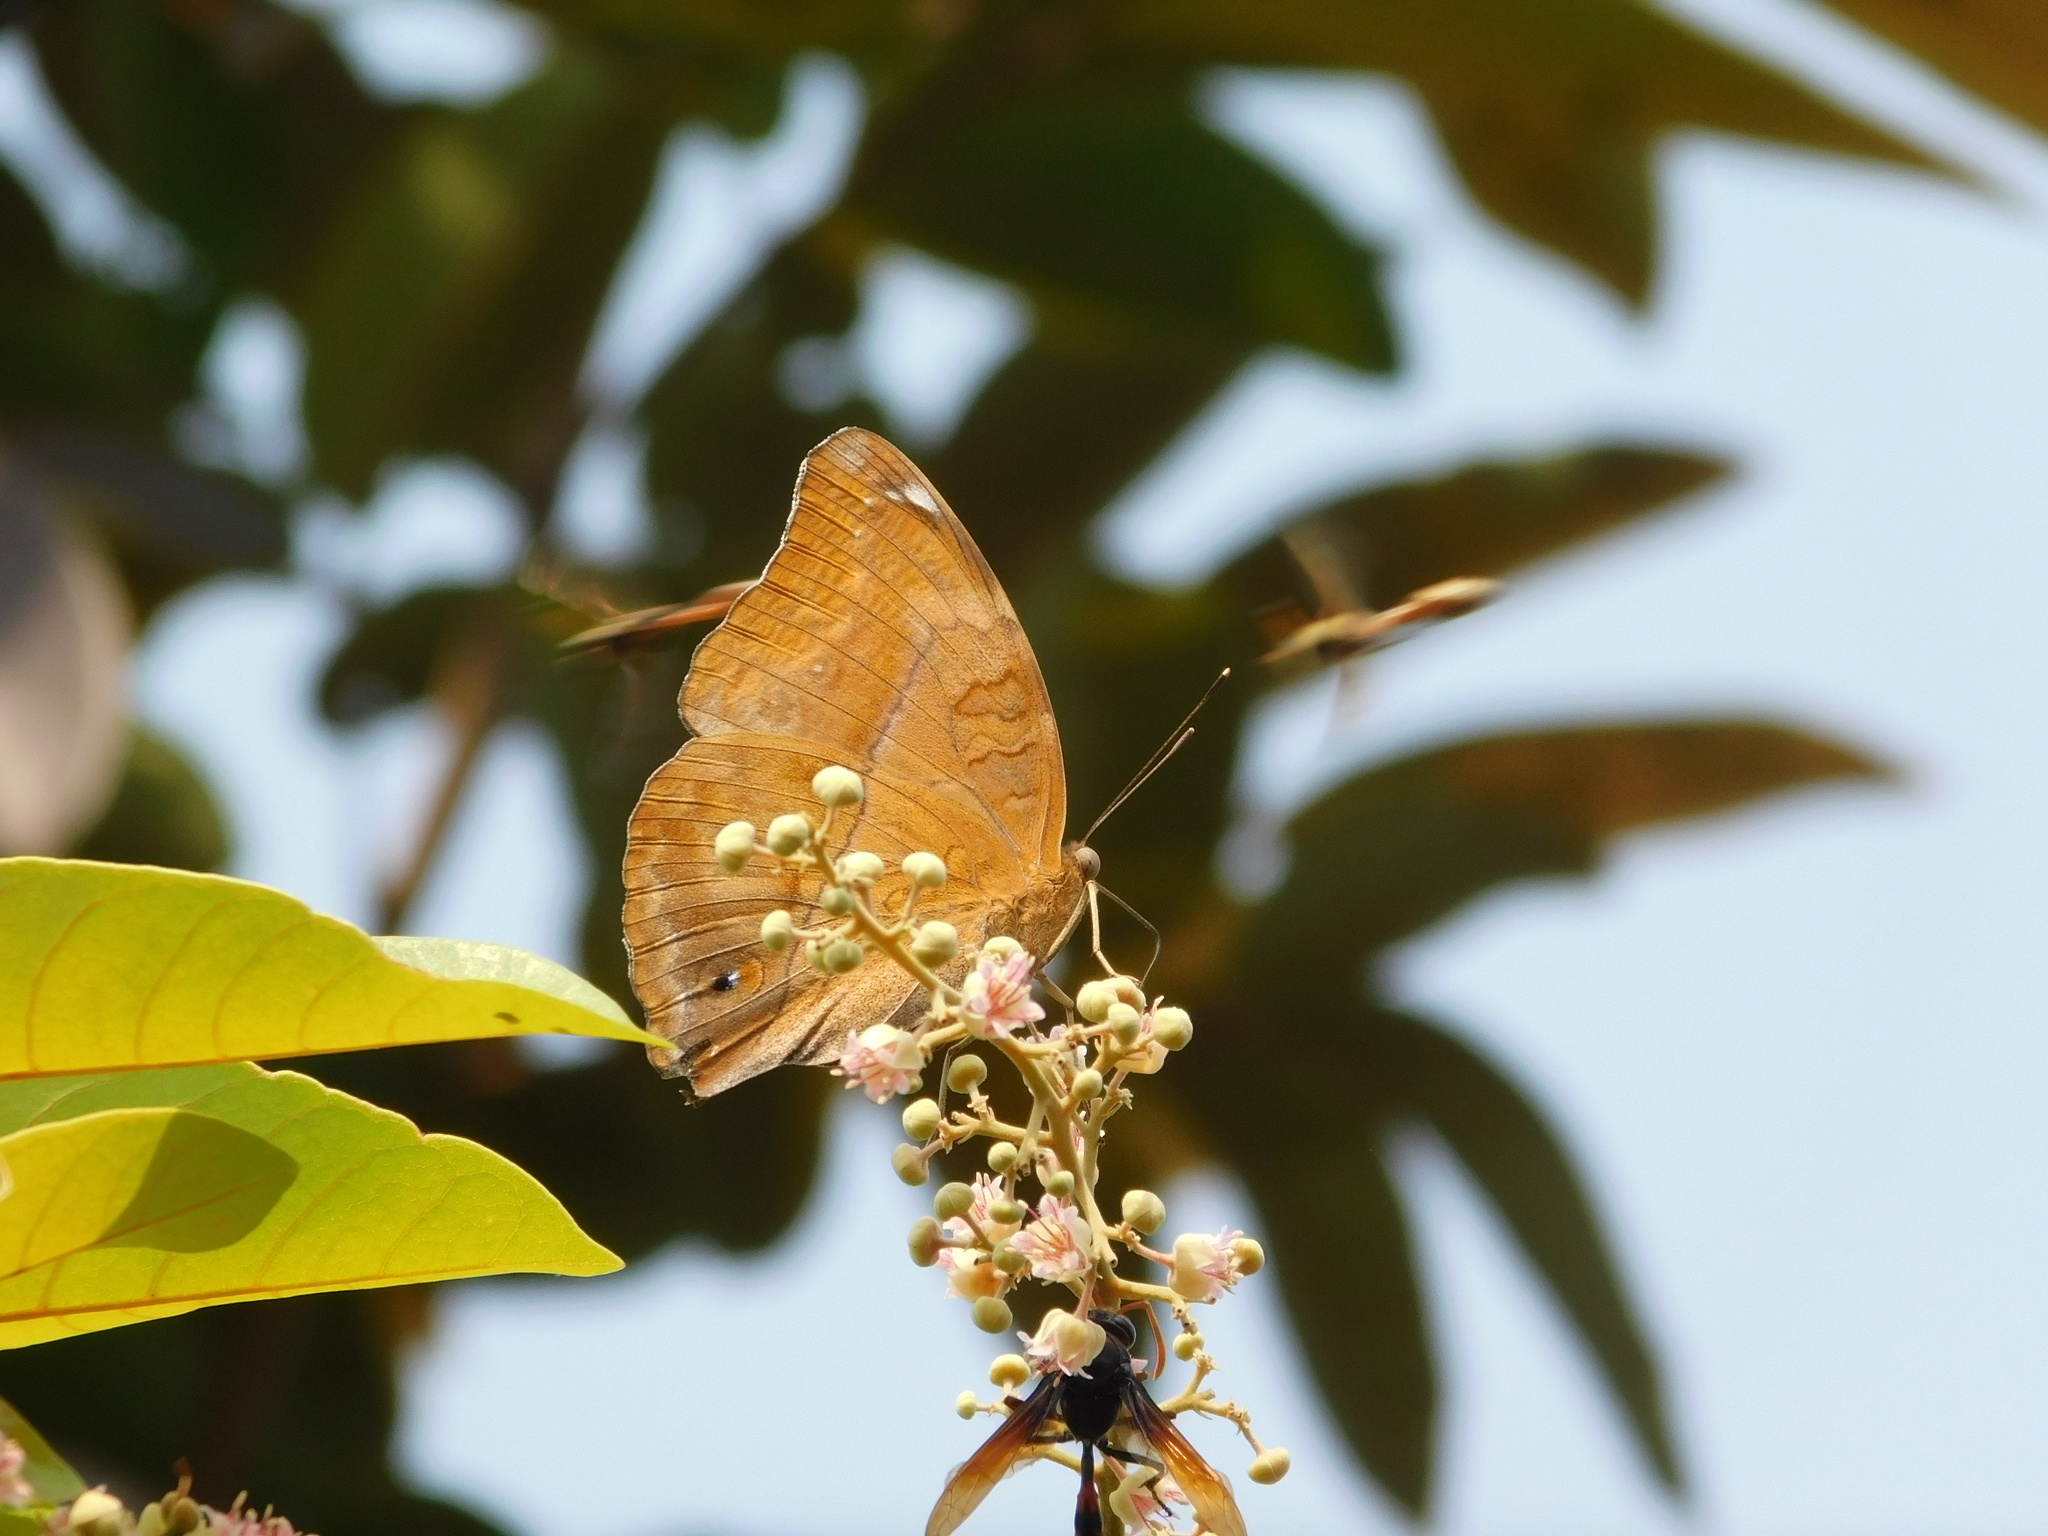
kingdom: Animalia
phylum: Arthropoda
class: Insecta
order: Lepidoptera
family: Nymphalidae
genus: Doleschallia
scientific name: Doleschallia bisaltide
